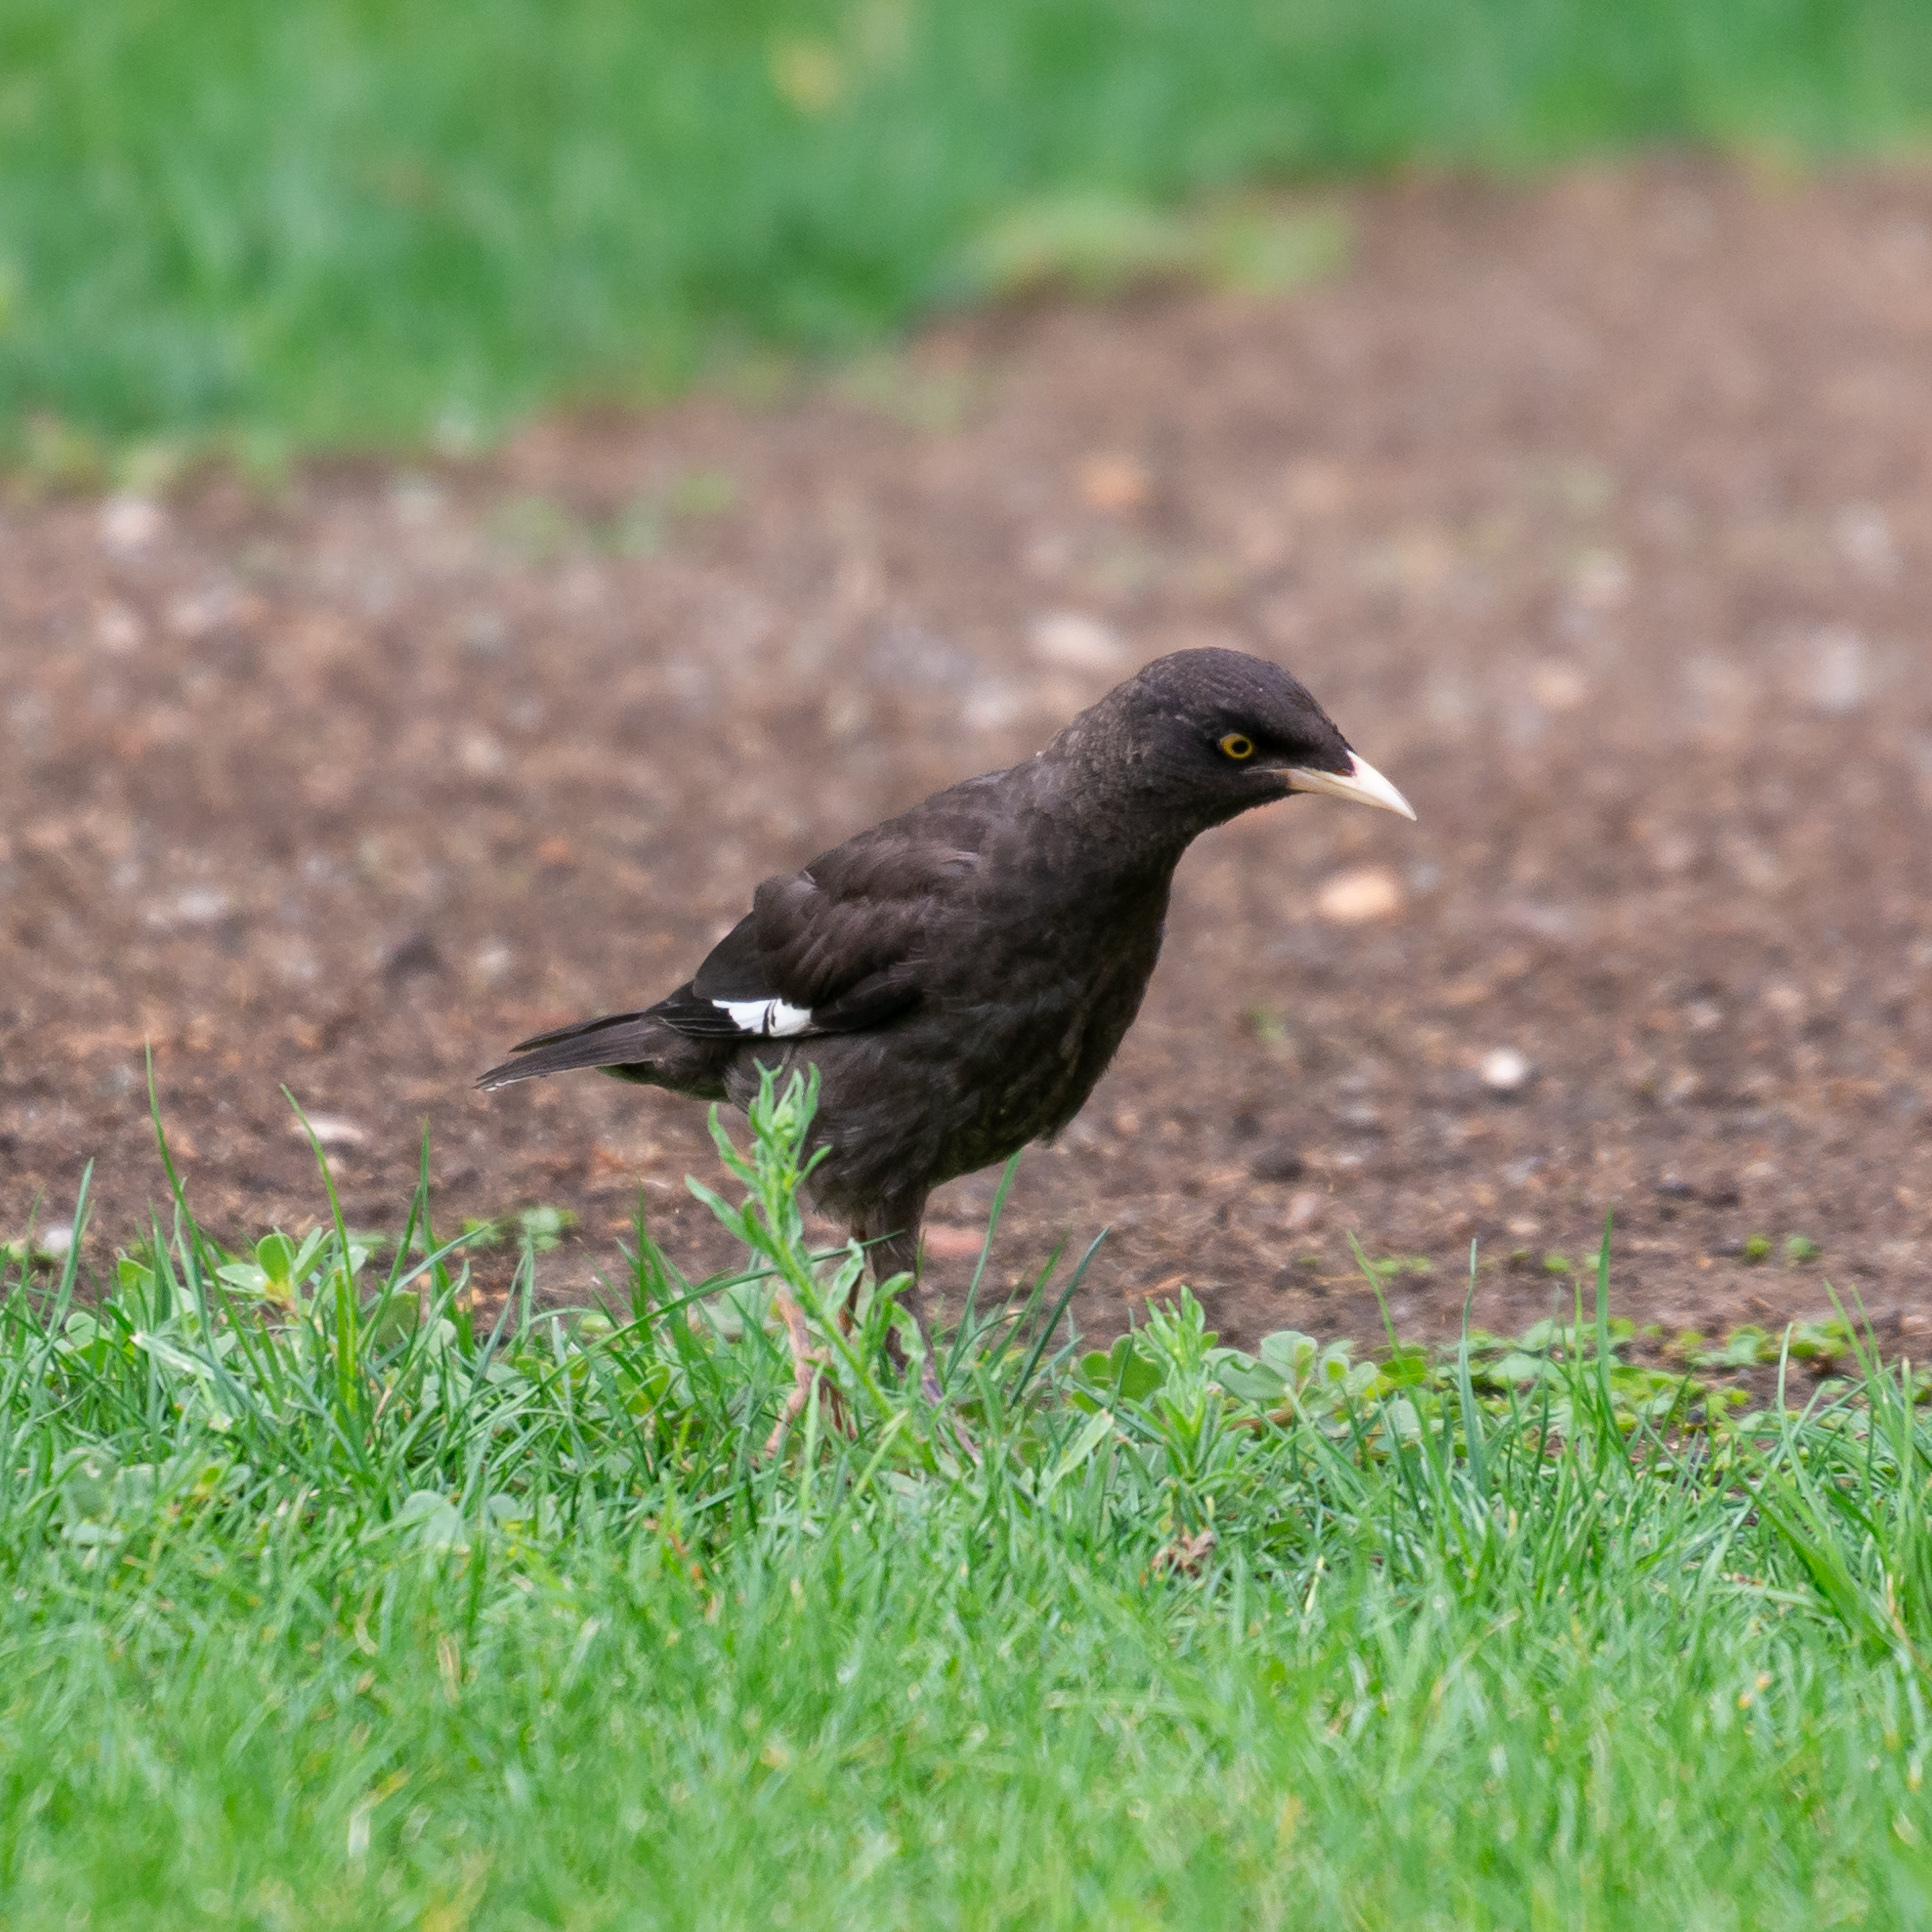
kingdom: Animalia
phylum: Chordata
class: Aves
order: Passeriformes
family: Sturnidae
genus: Acridotheres
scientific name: Acridotheres cristatellus
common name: Crested myna
